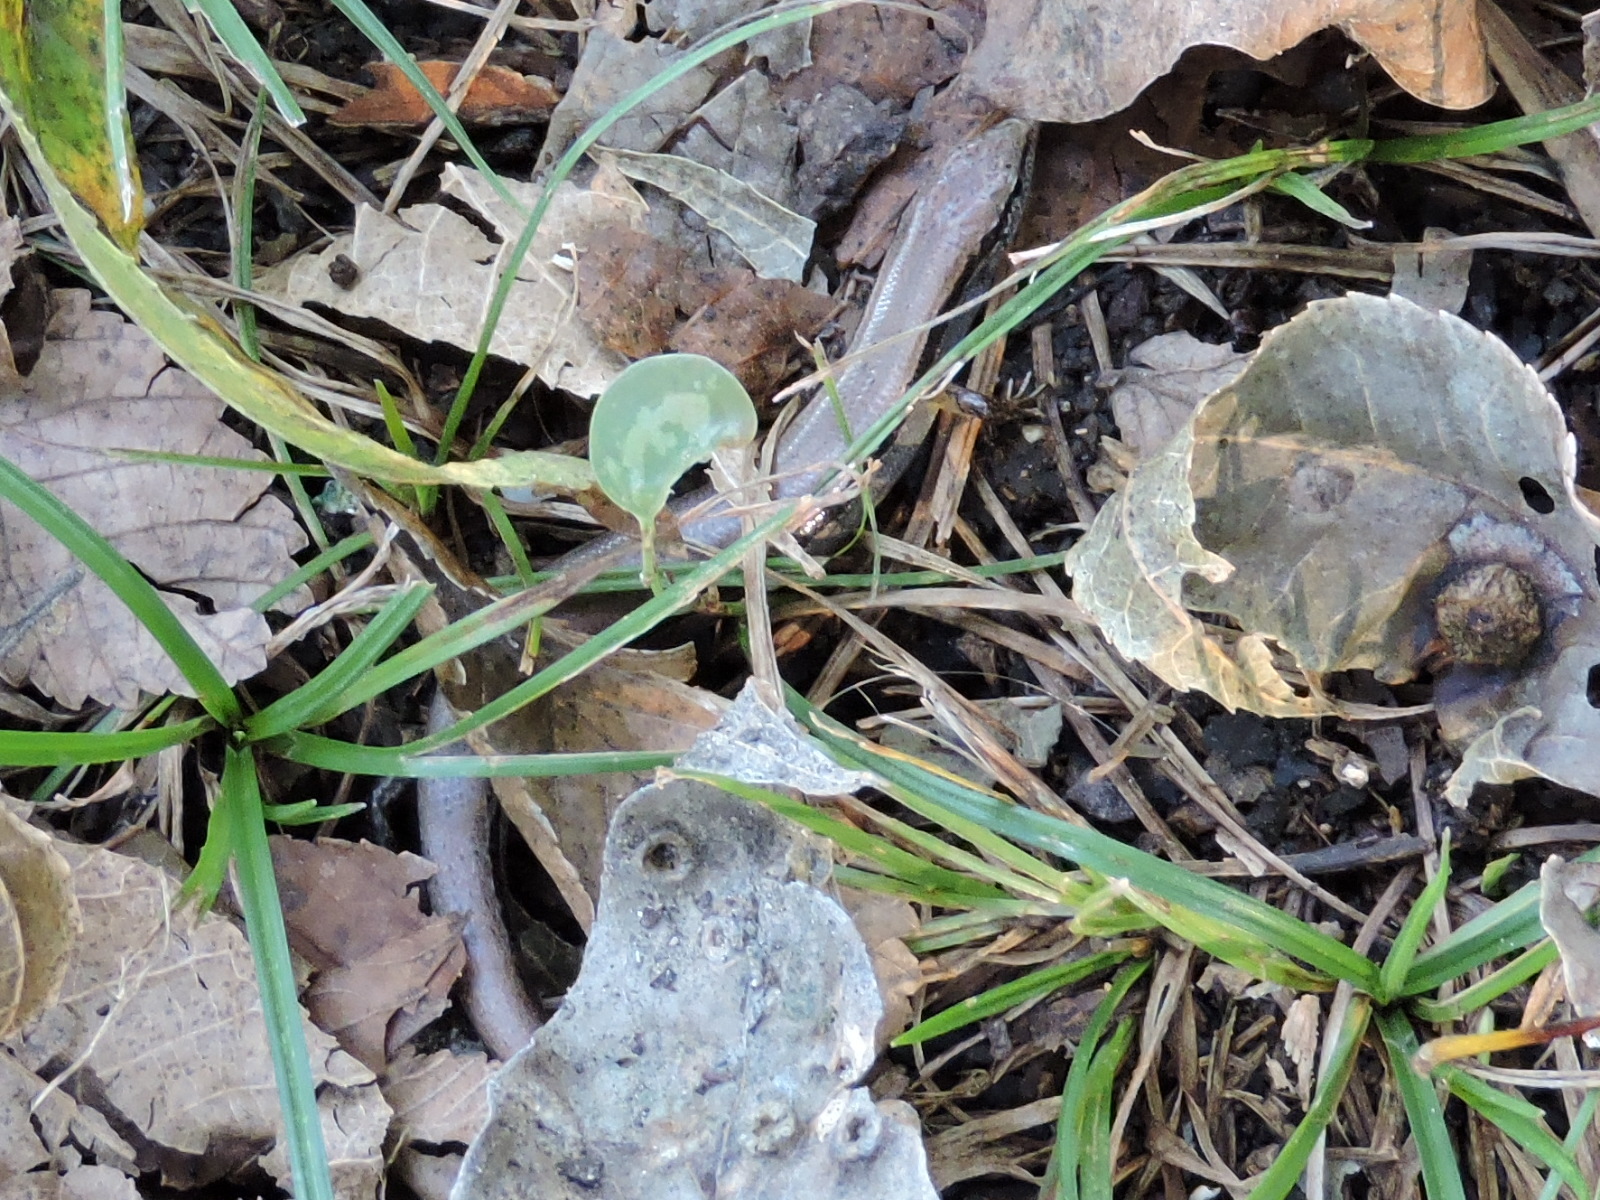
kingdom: Animalia
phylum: Chordata
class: Squamata
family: Scincidae
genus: Scincella
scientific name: Scincella lateralis
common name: Ground skink
